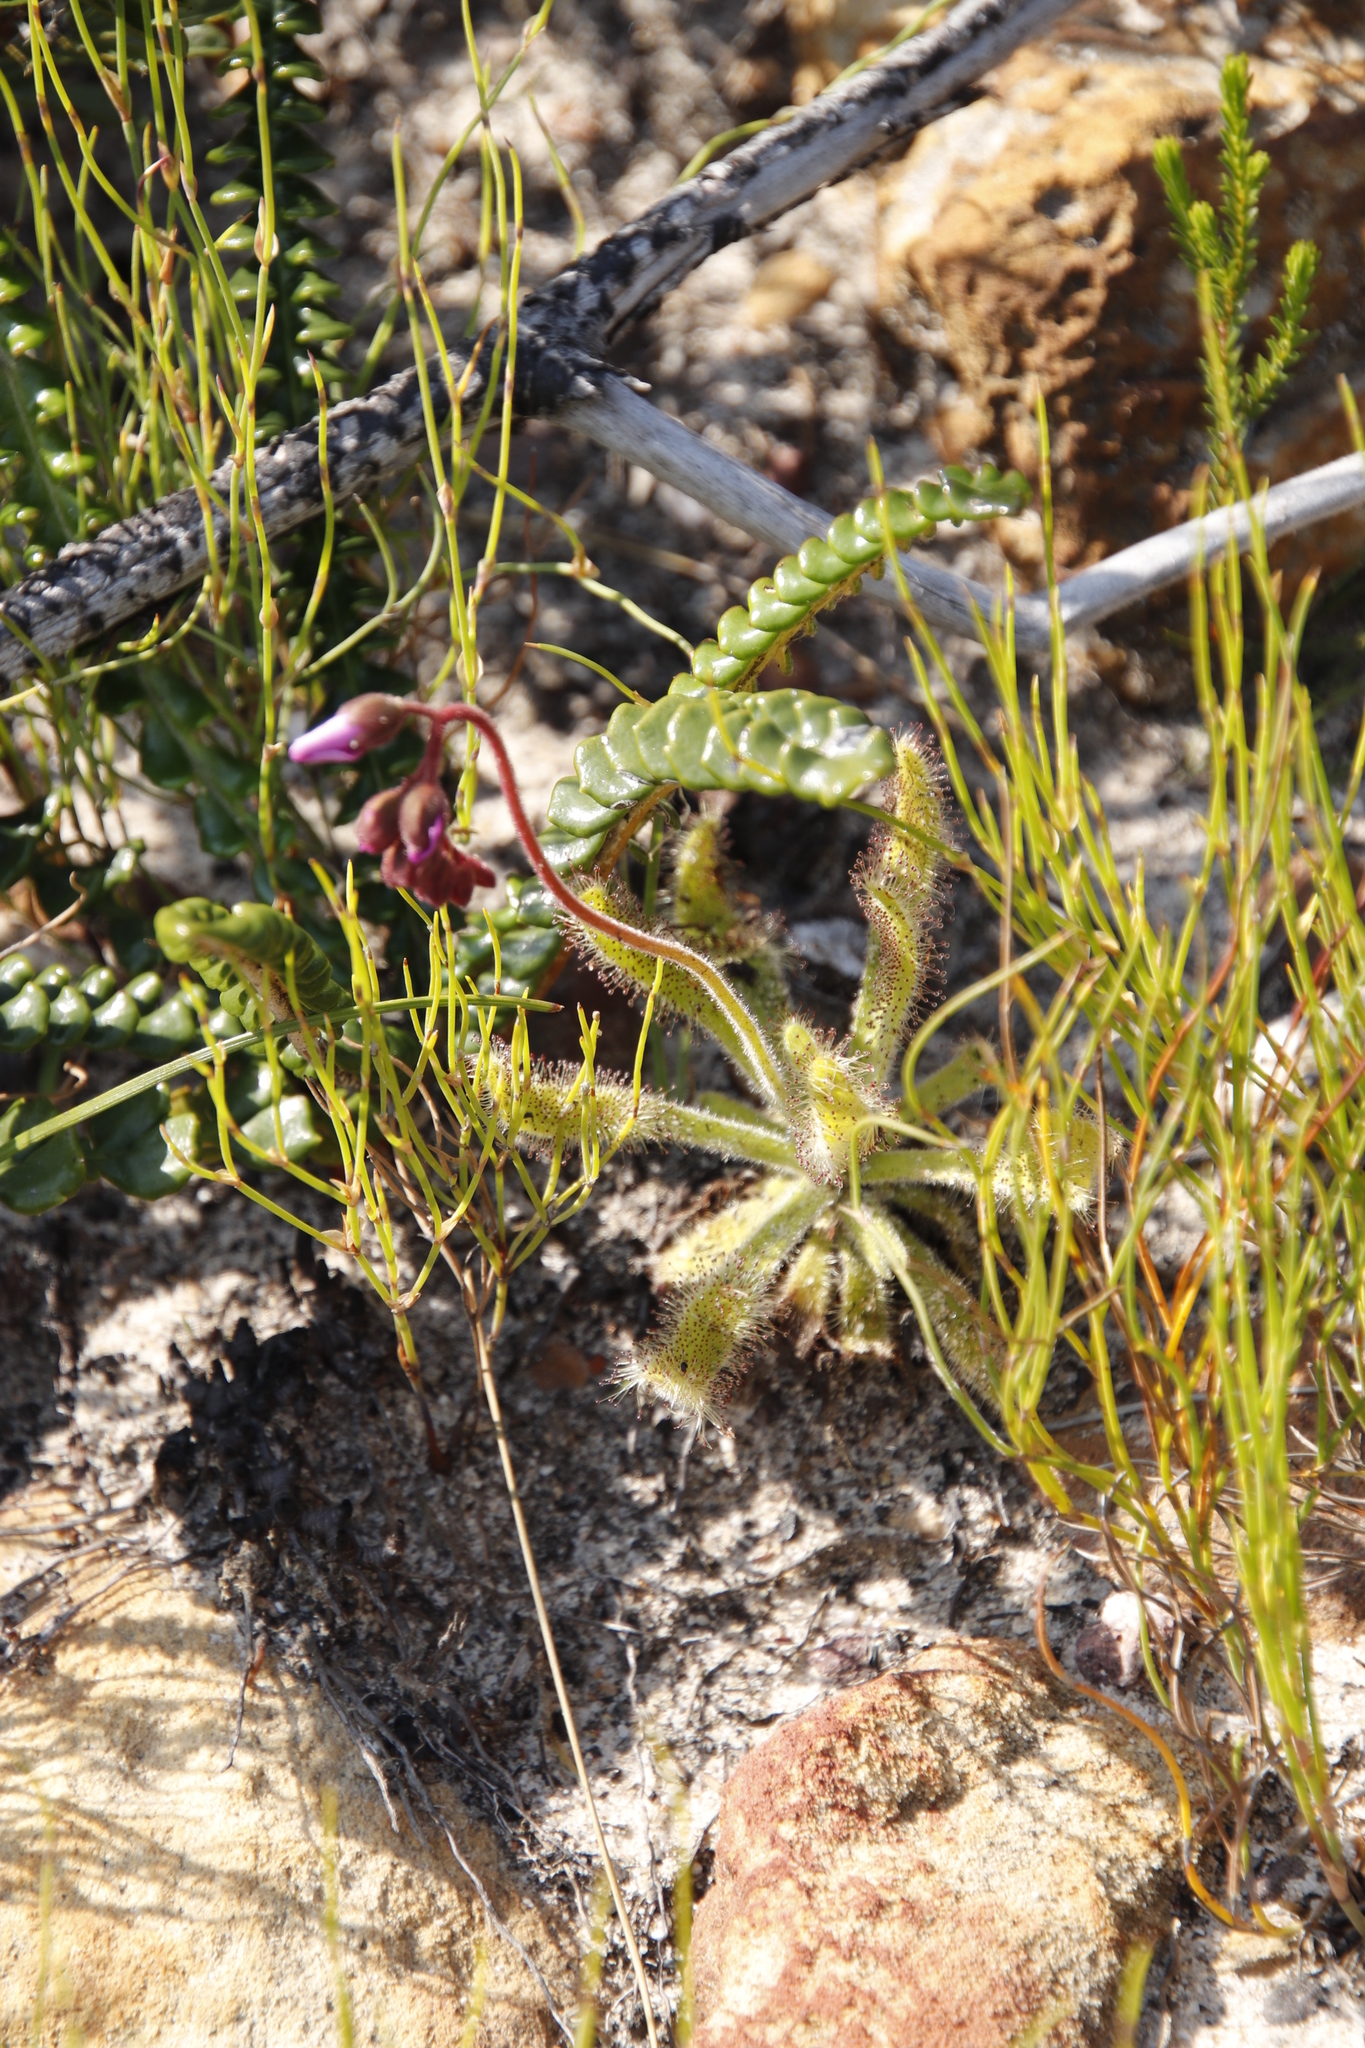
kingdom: Plantae
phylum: Tracheophyta
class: Magnoliopsida
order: Caryophyllales
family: Droseraceae
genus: Drosera
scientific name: Drosera hilaris
